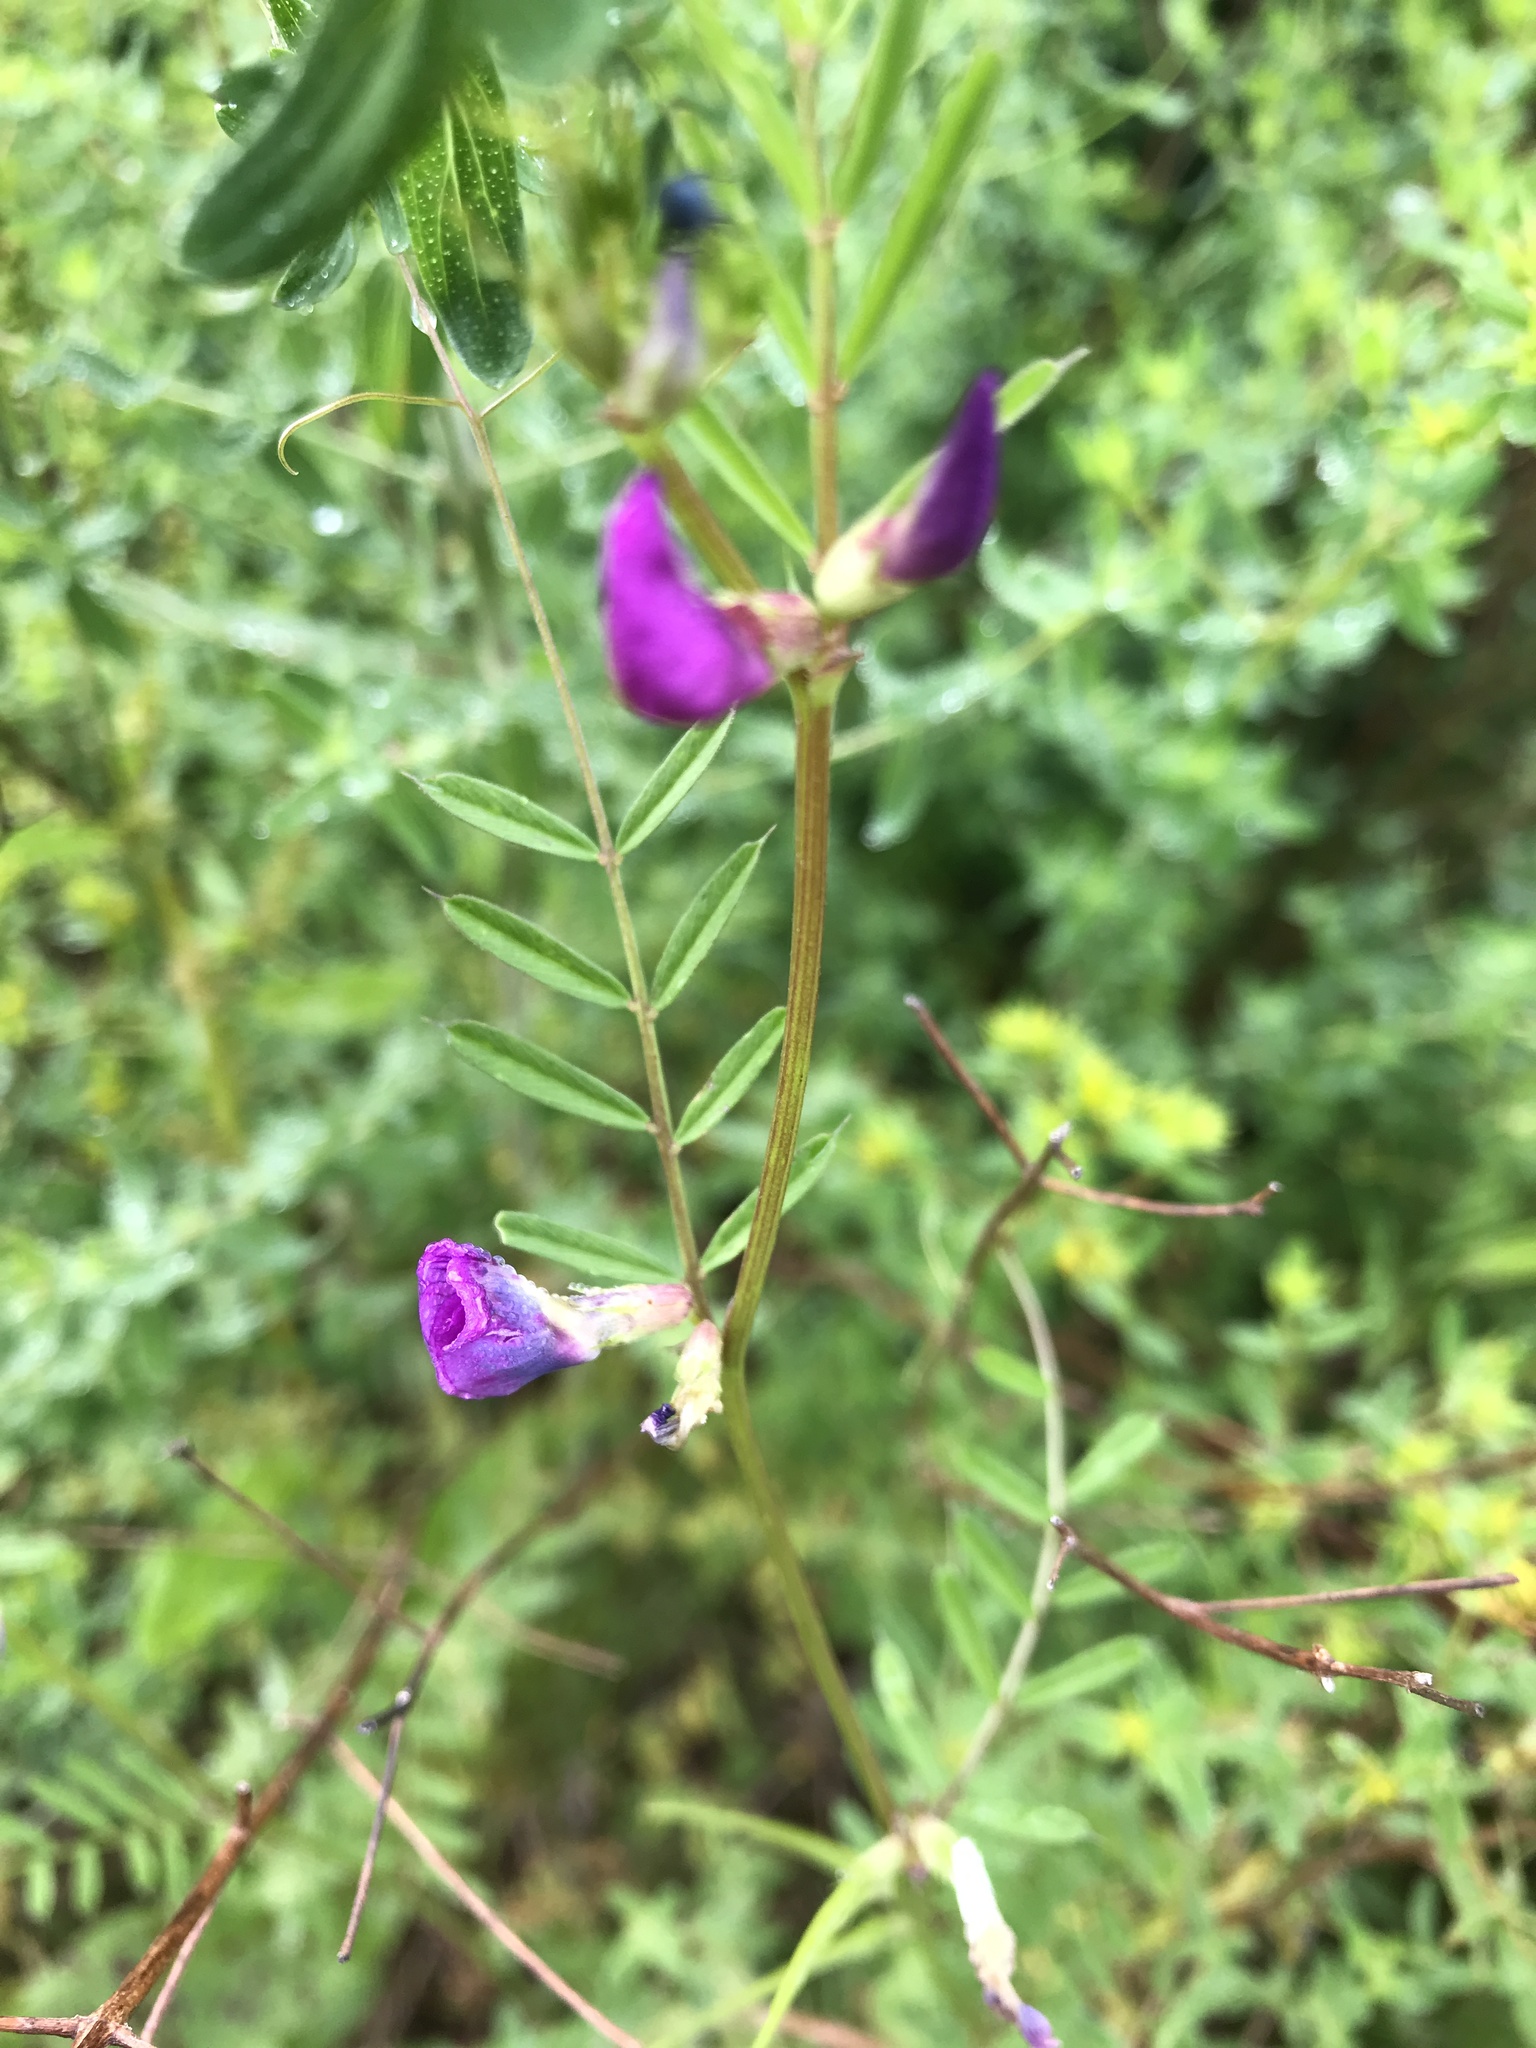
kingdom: Plantae
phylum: Tracheophyta
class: Magnoliopsida
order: Fabales
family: Fabaceae
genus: Vicia
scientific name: Vicia sativa
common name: Garden vetch
